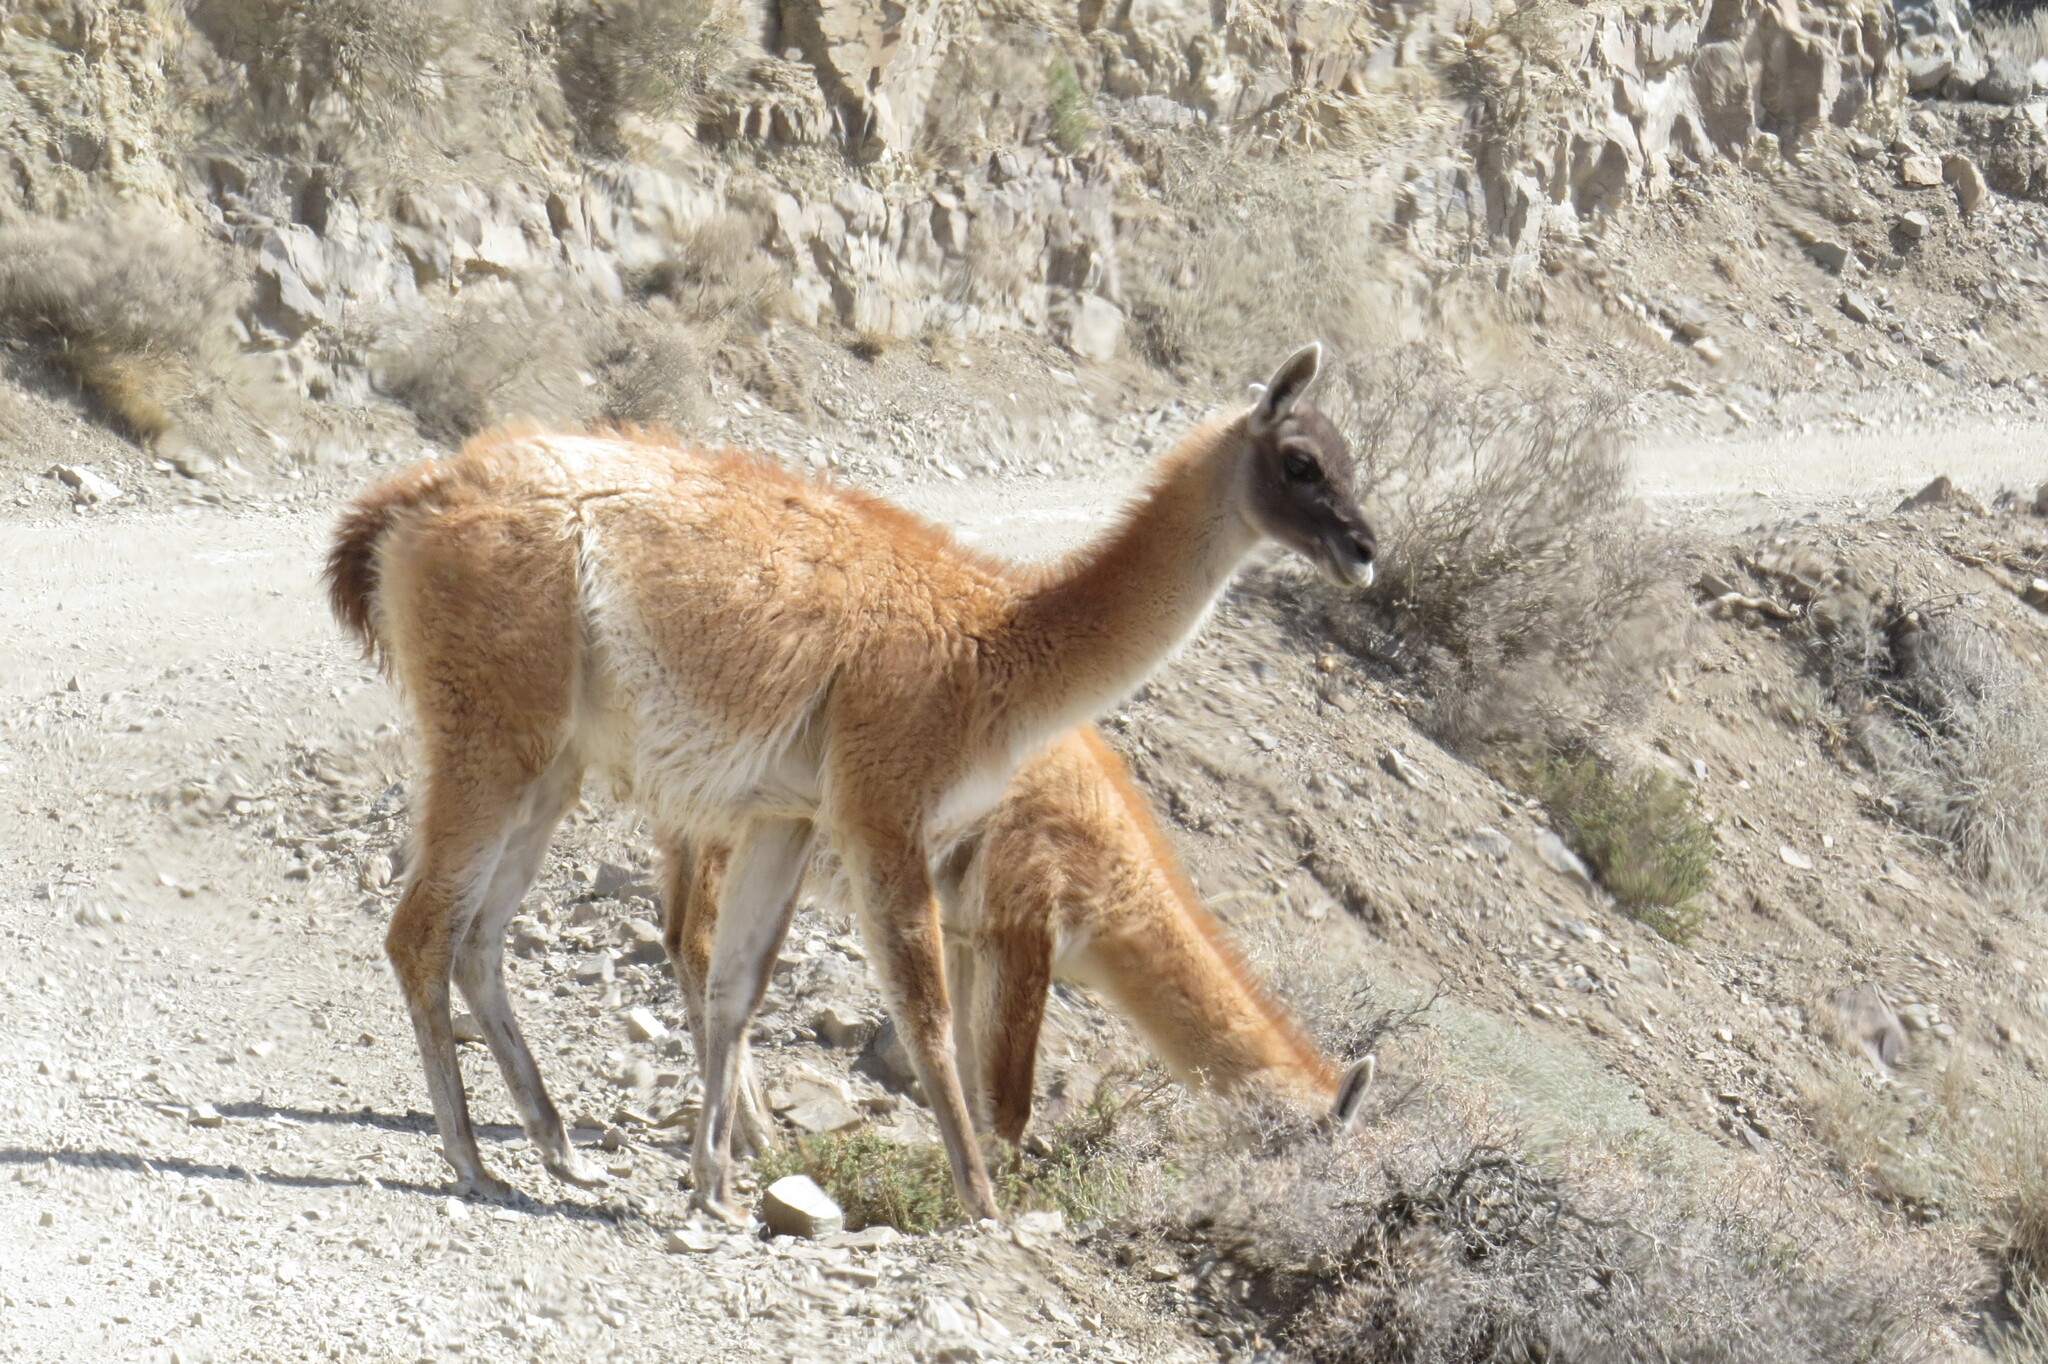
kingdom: Animalia
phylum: Chordata
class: Mammalia
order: Artiodactyla
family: Camelidae
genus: Lama
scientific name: Lama glama
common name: Llama
